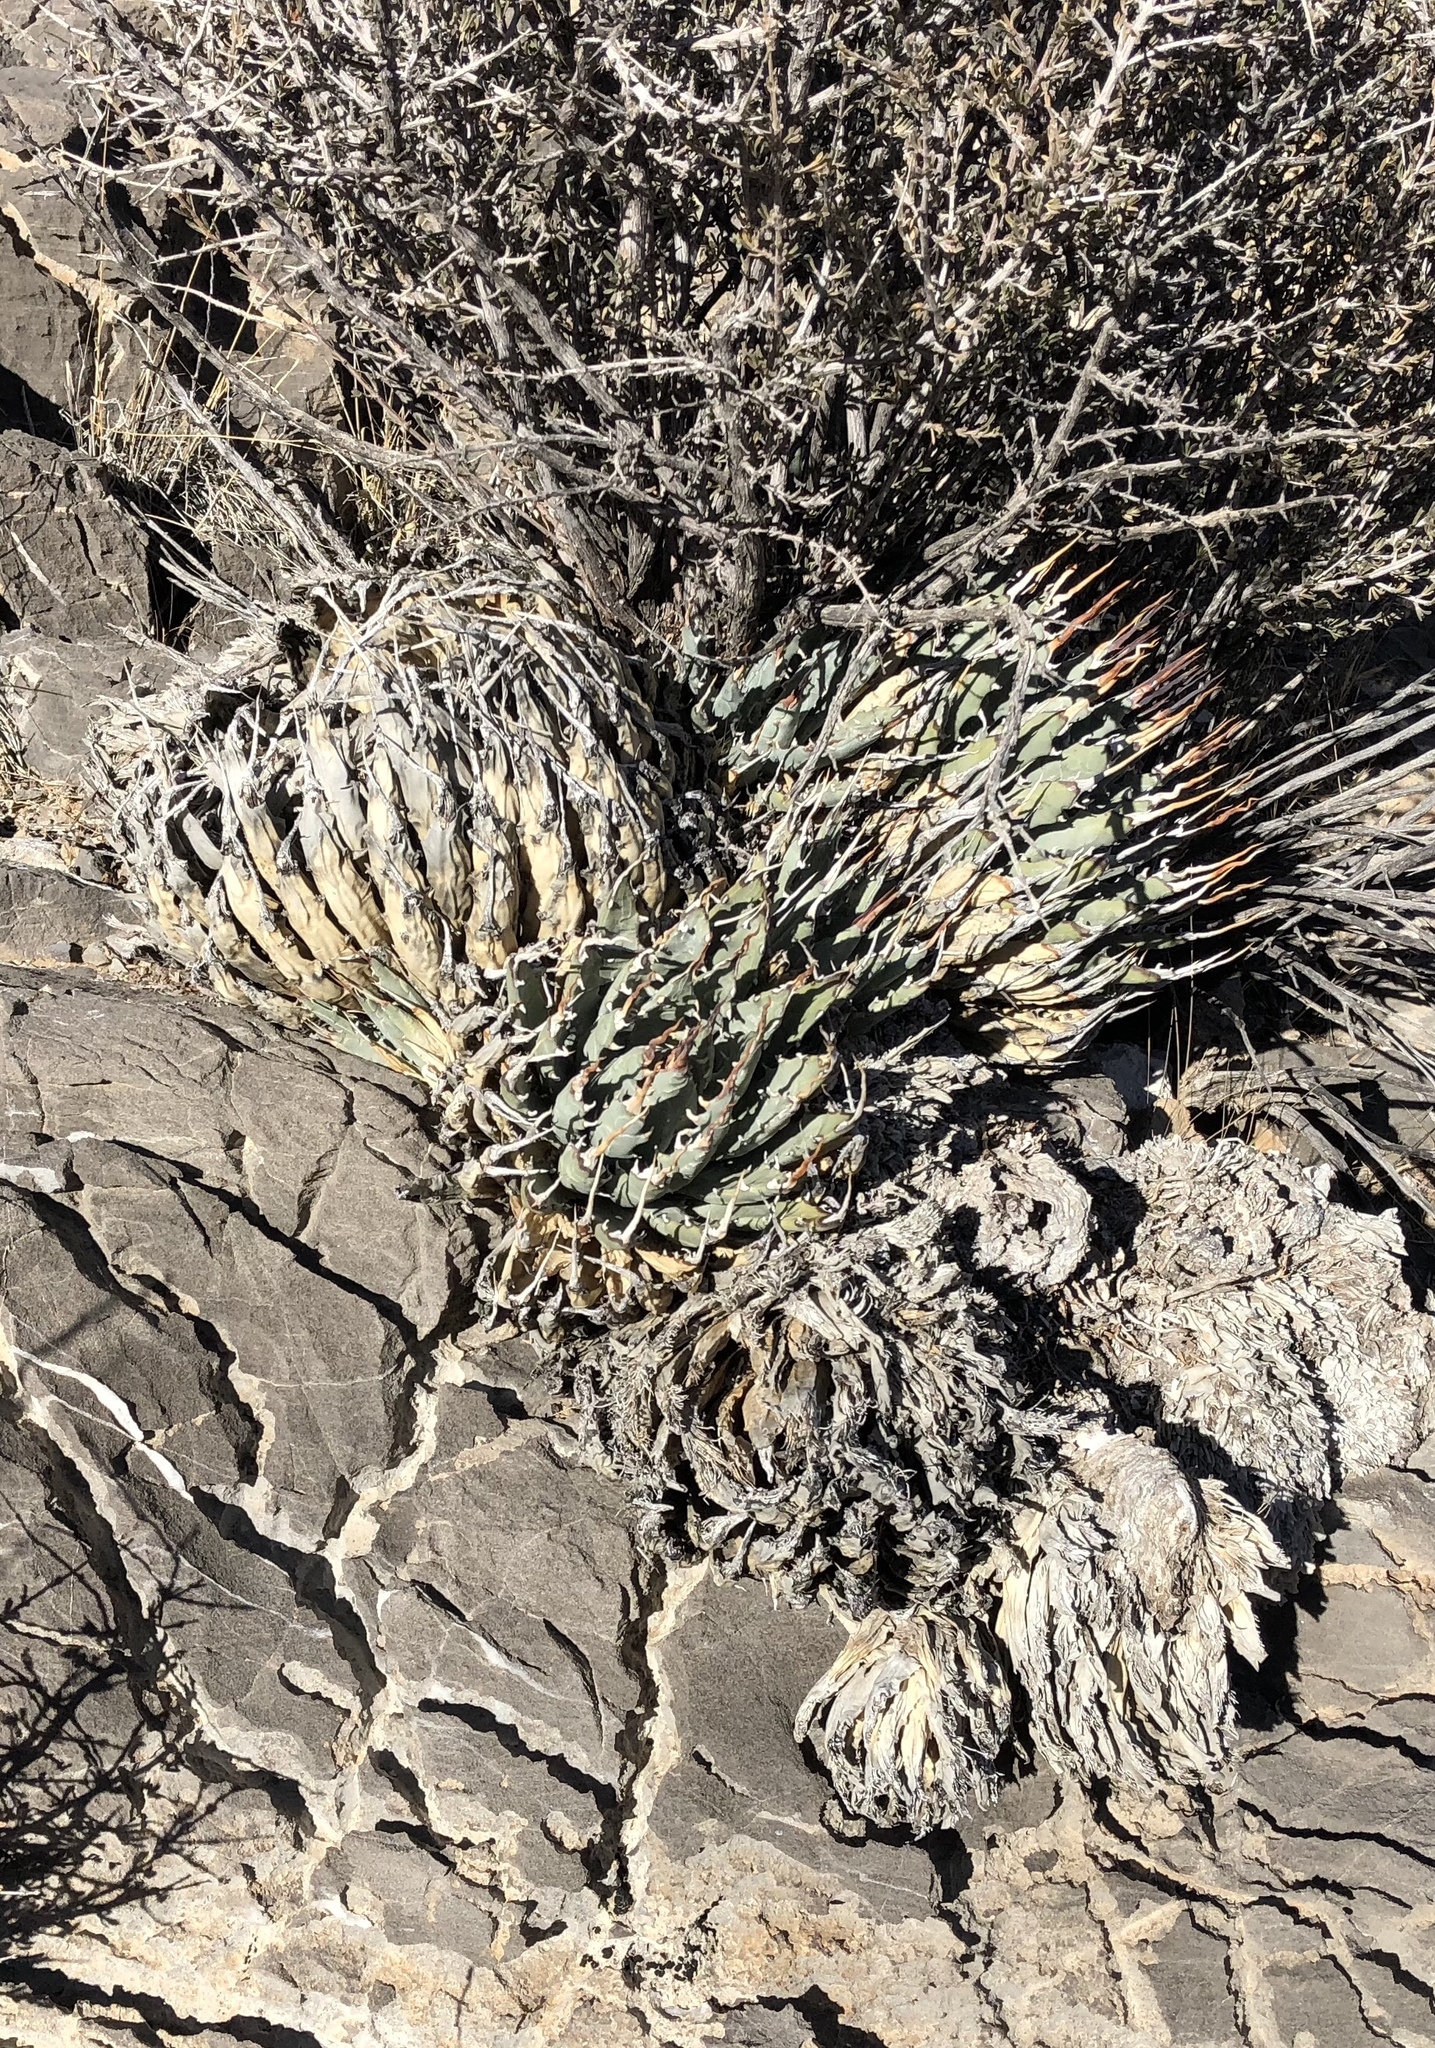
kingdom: Plantae
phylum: Tracheophyta
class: Liliopsida
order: Asparagales
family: Asparagaceae
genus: Agave
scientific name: Agave utahensis
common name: Utah agave
